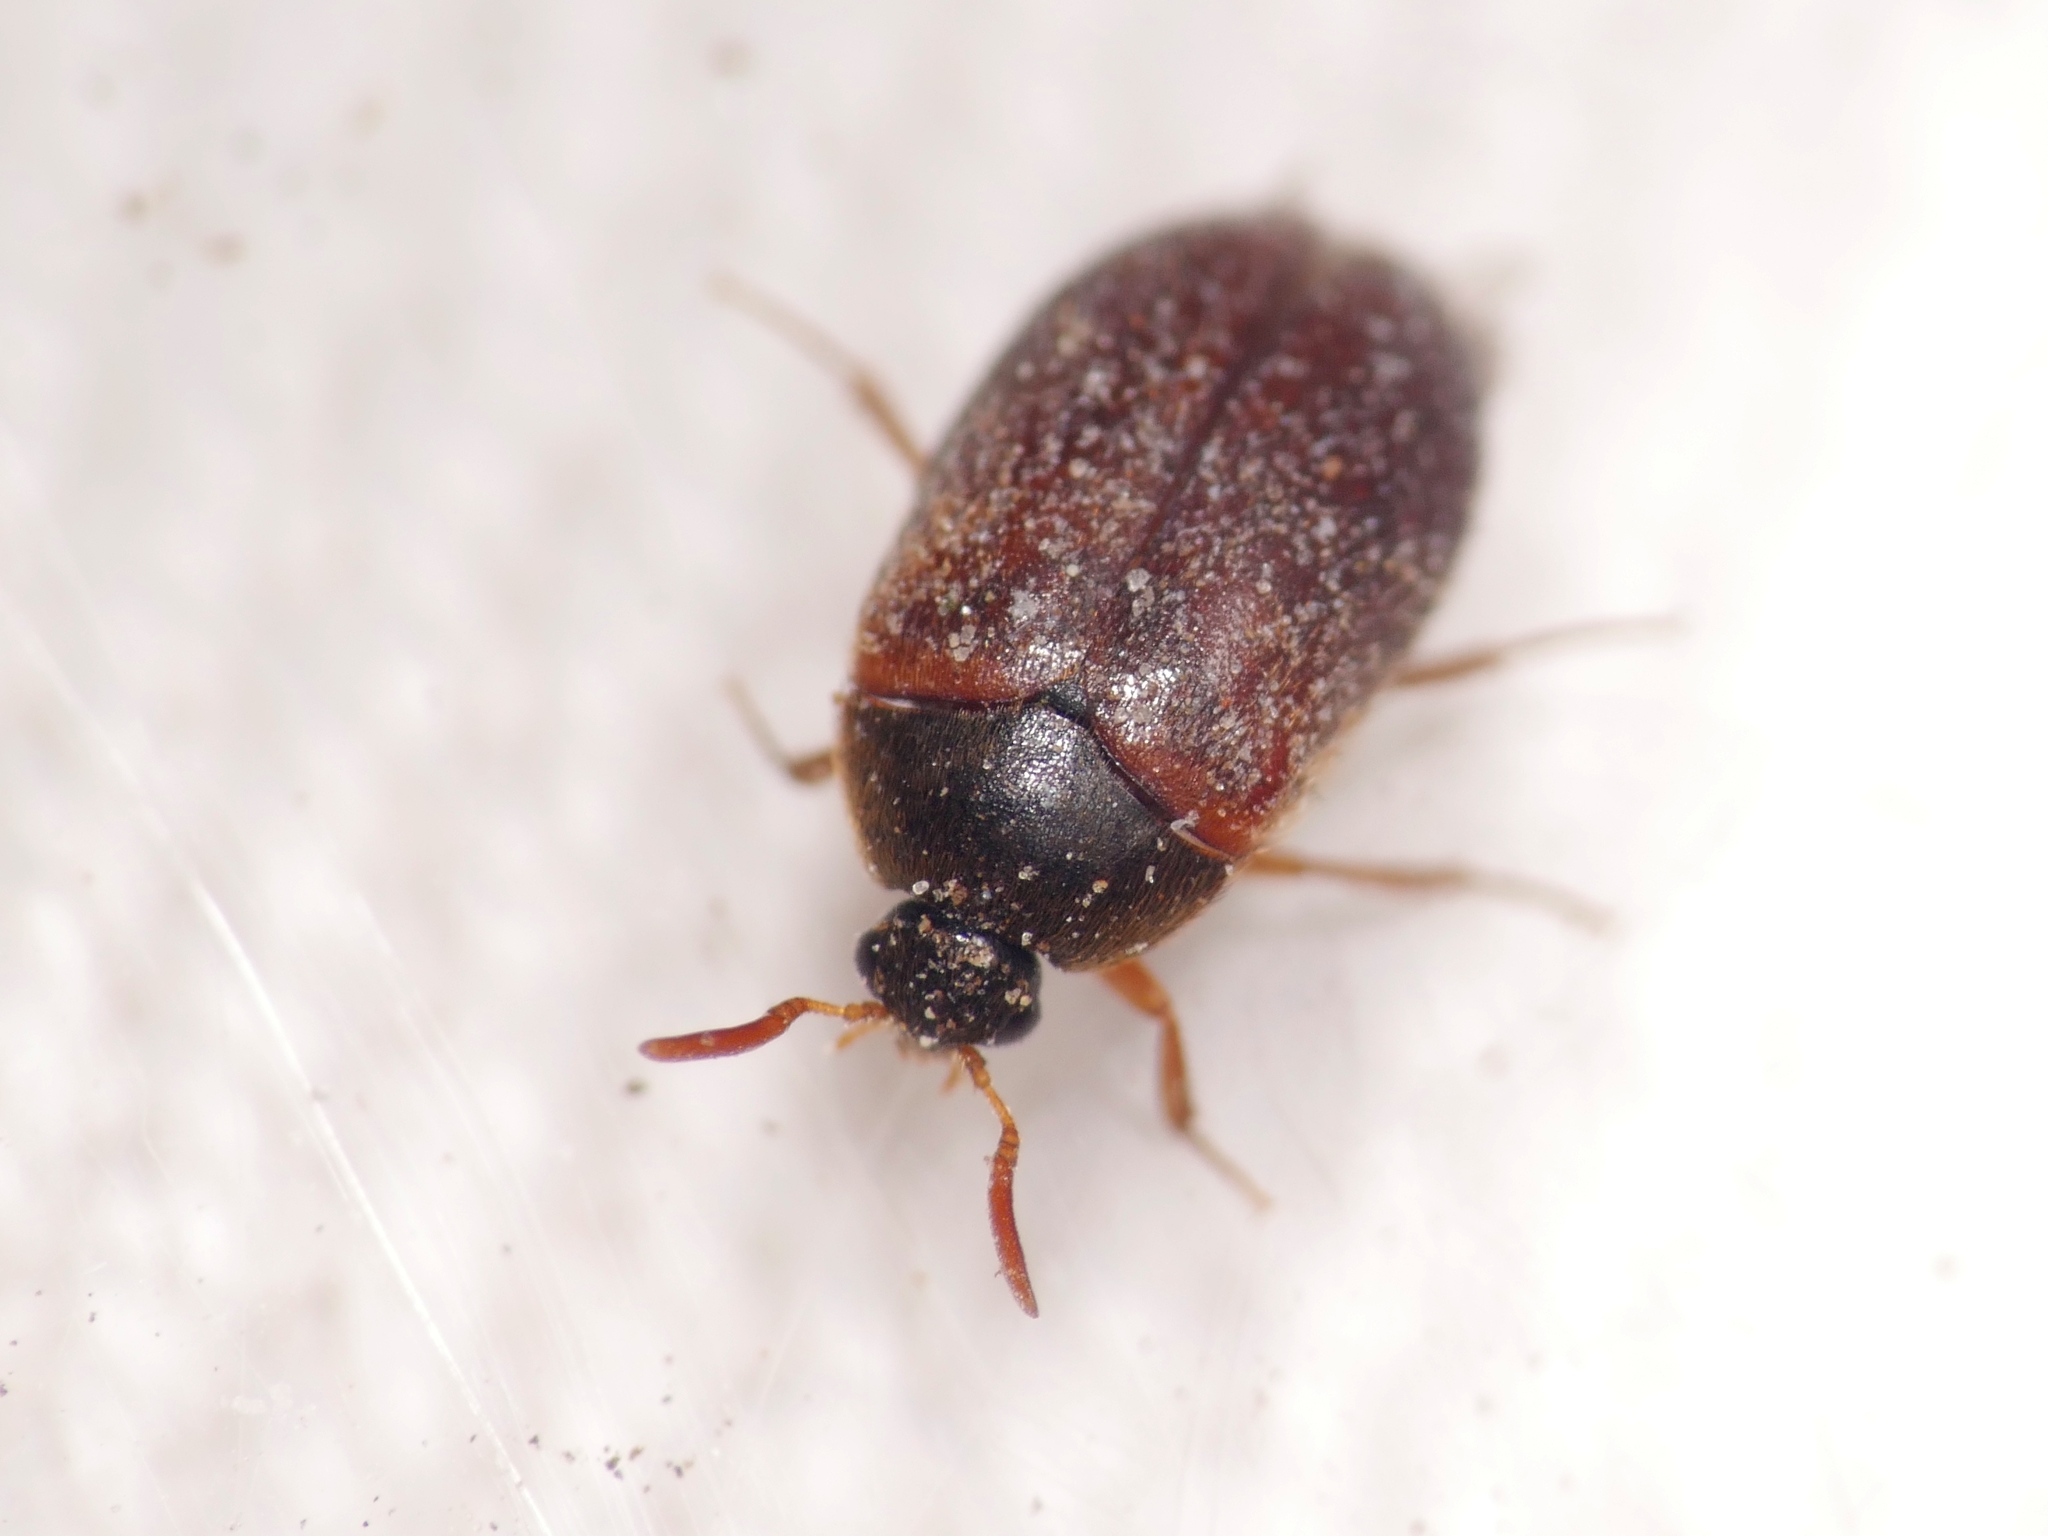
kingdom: Animalia
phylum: Arthropoda
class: Insecta
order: Coleoptera
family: Dermestidae
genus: Attagenus
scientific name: Attagenus smirnovi
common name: Brown carpet beetle
